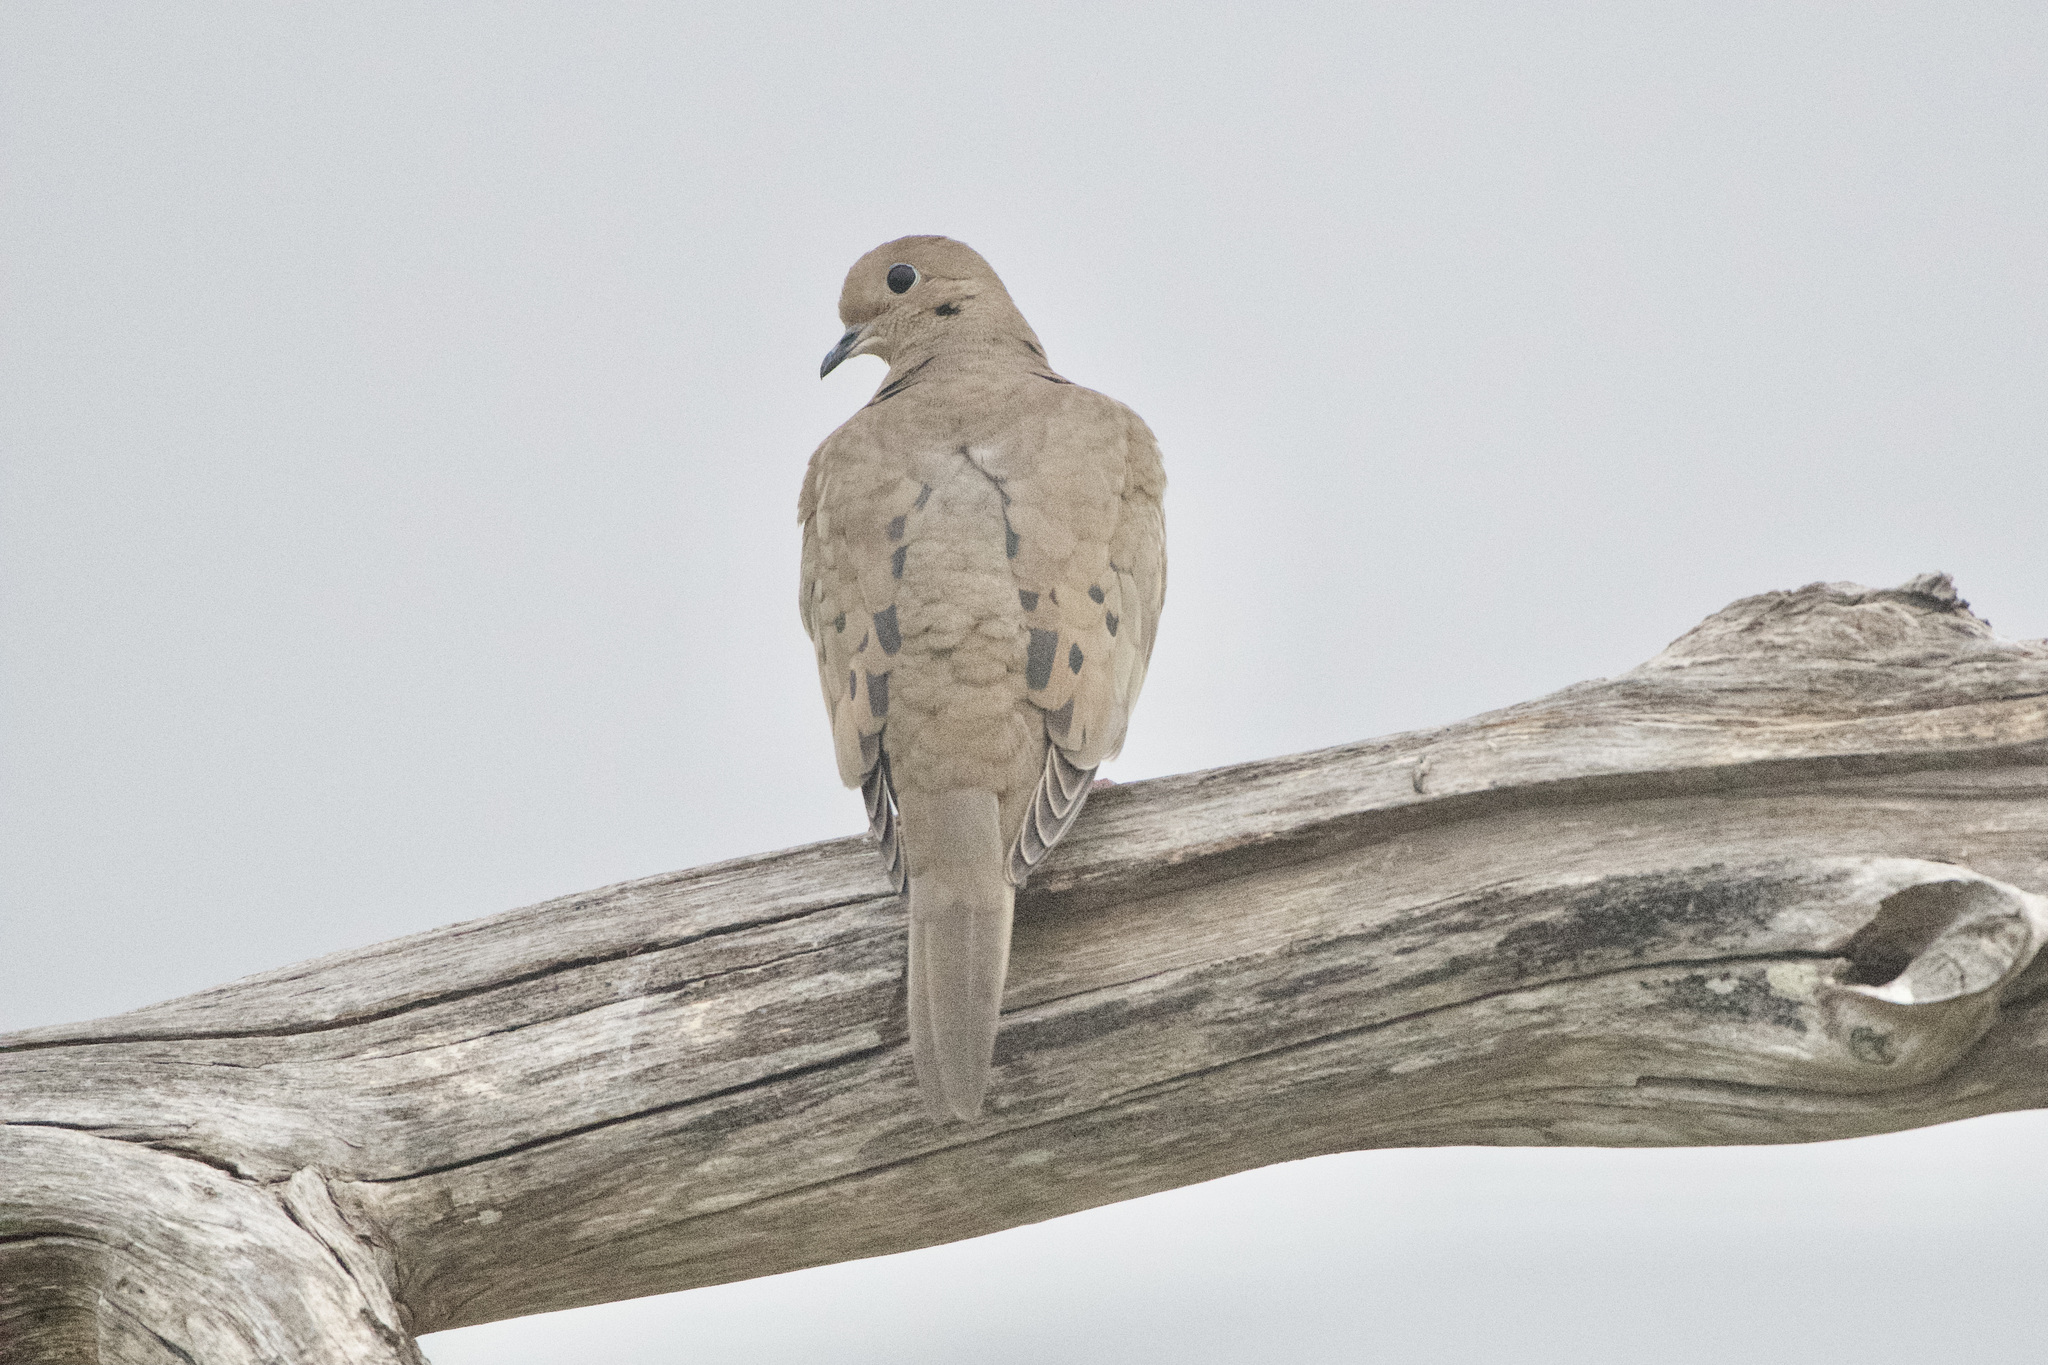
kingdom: Animalia
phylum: Chordata
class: Aves
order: Columbiformes
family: Columbidae
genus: Zenaida
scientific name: Zenaida macroura
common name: Mourning dove
